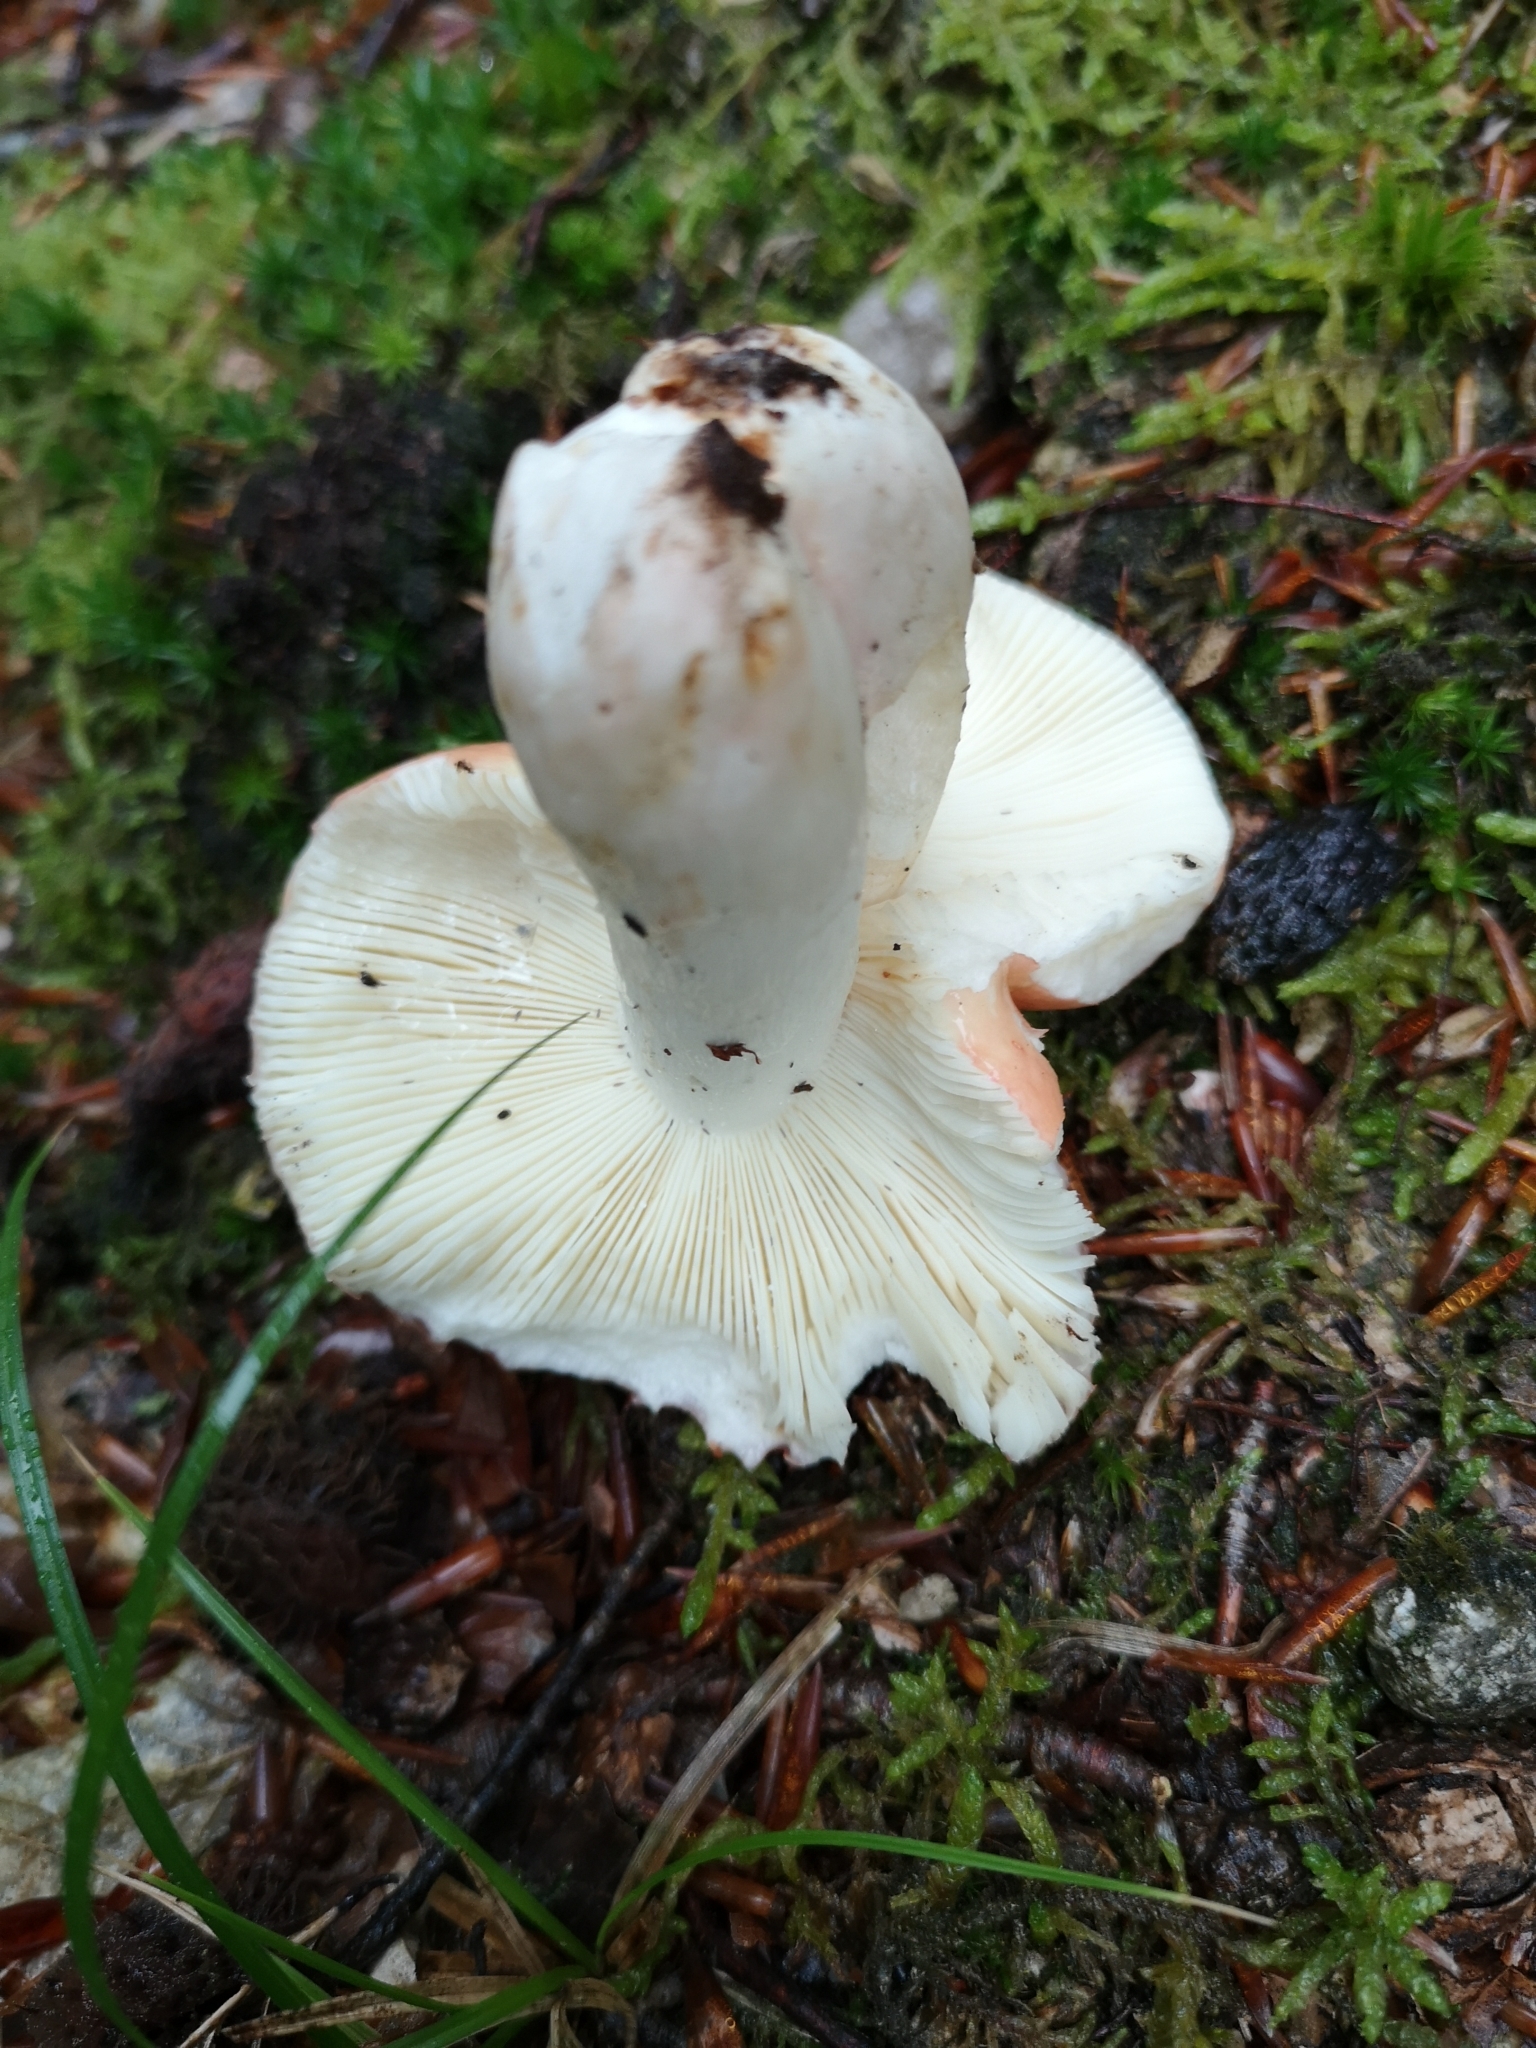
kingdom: Fungi
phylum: Basidiomycota
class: Agaricomycetes
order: Russulales
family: Russulaceae
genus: Russula
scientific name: Russula vesca
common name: Bare-toothed russula
